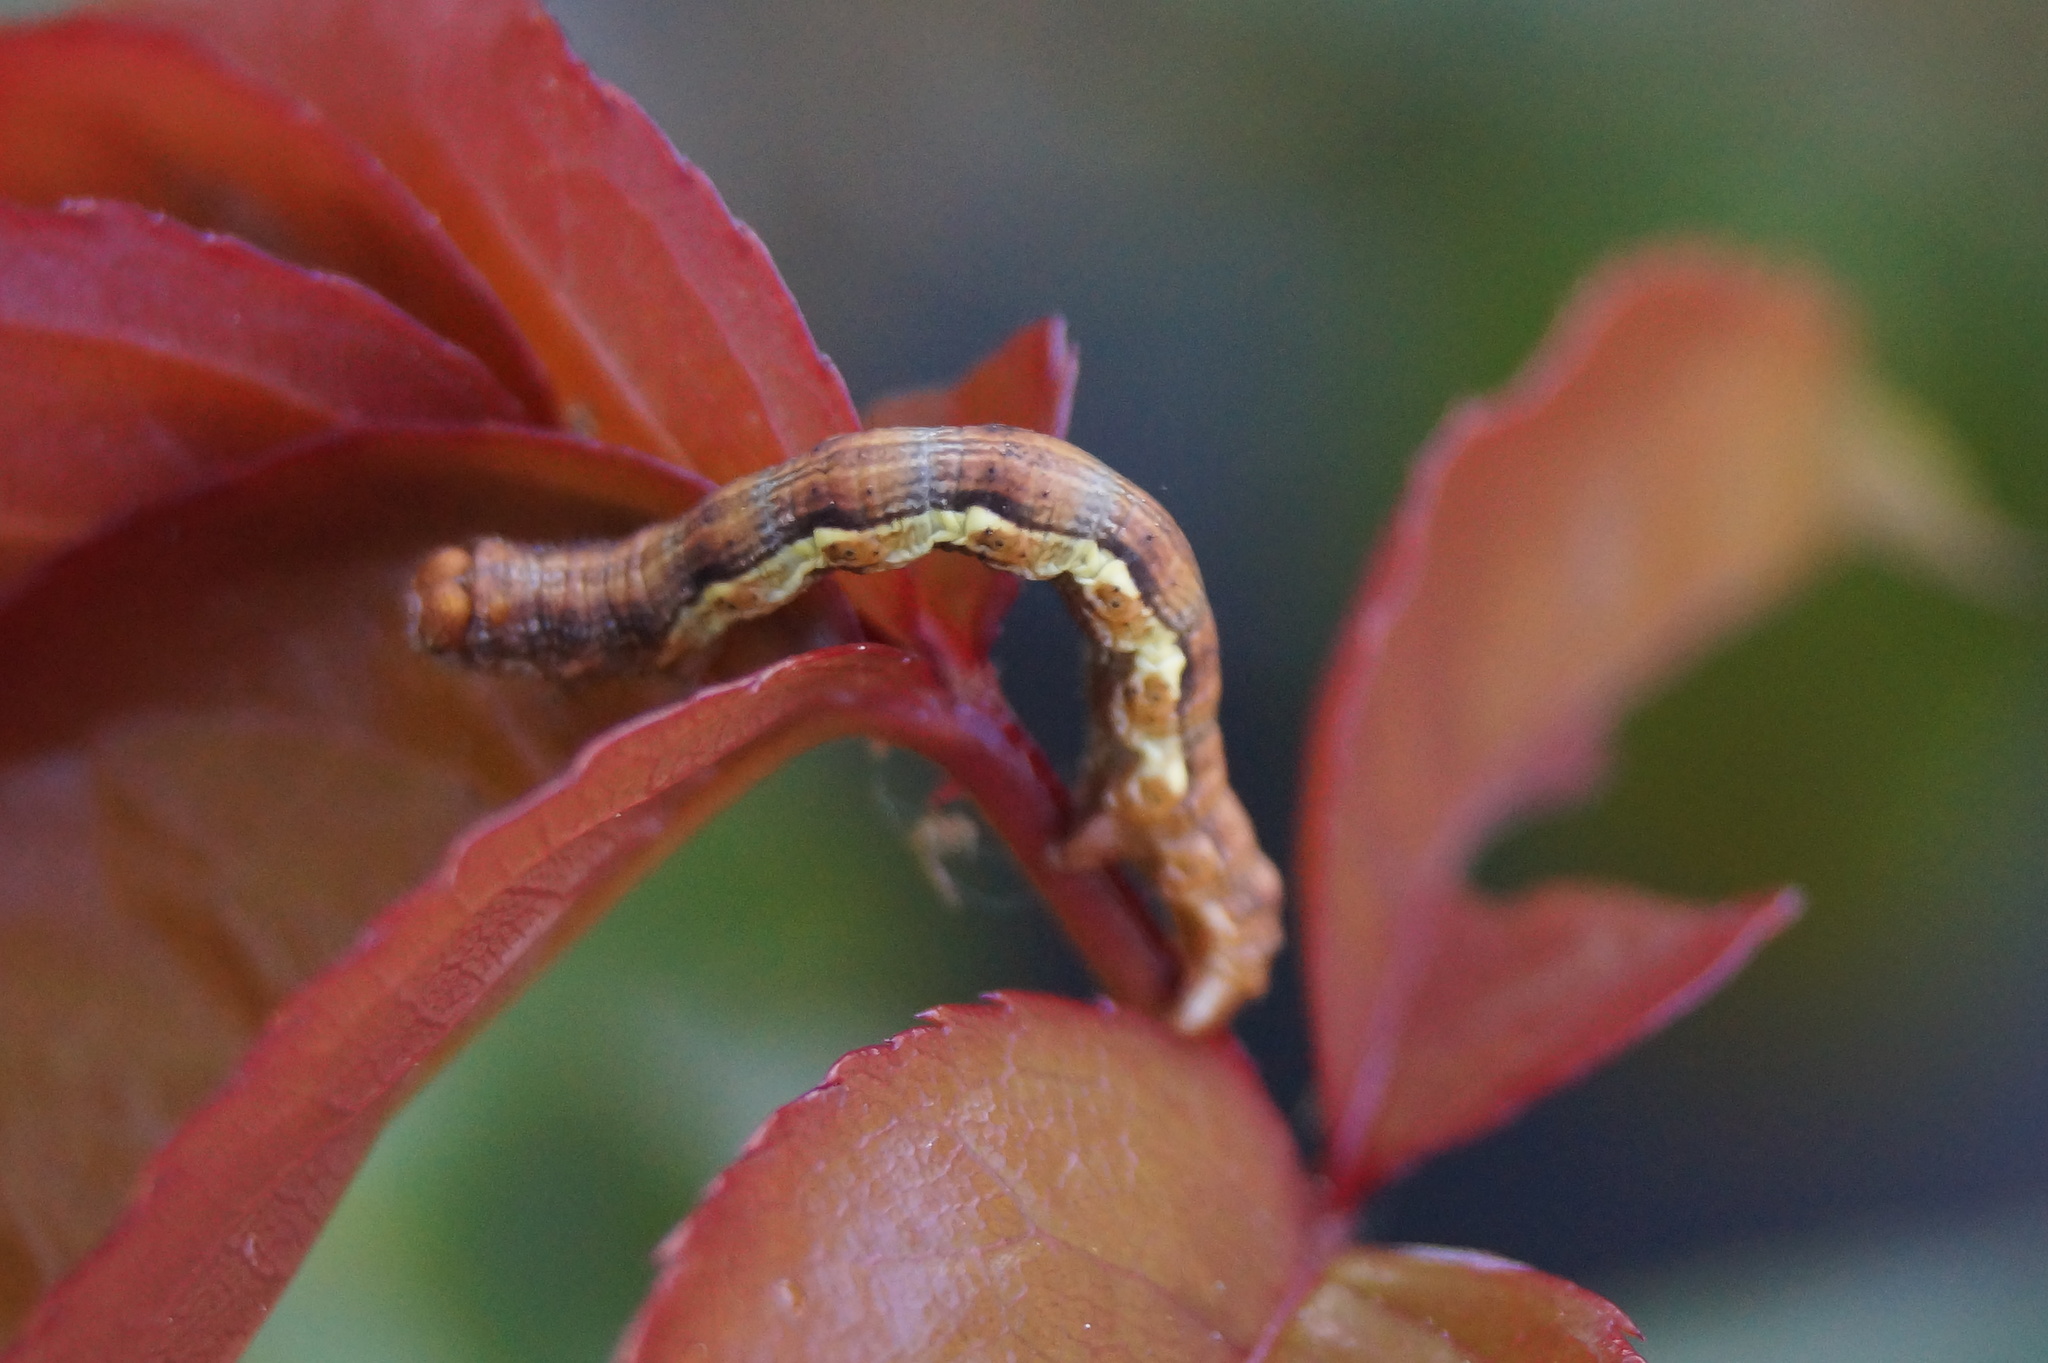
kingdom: Animalia
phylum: Arthropoda
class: Insecta
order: Lepidoptera
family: Geometridae
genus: Erannis
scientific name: Erannis defoliaria
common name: Mottled umber
